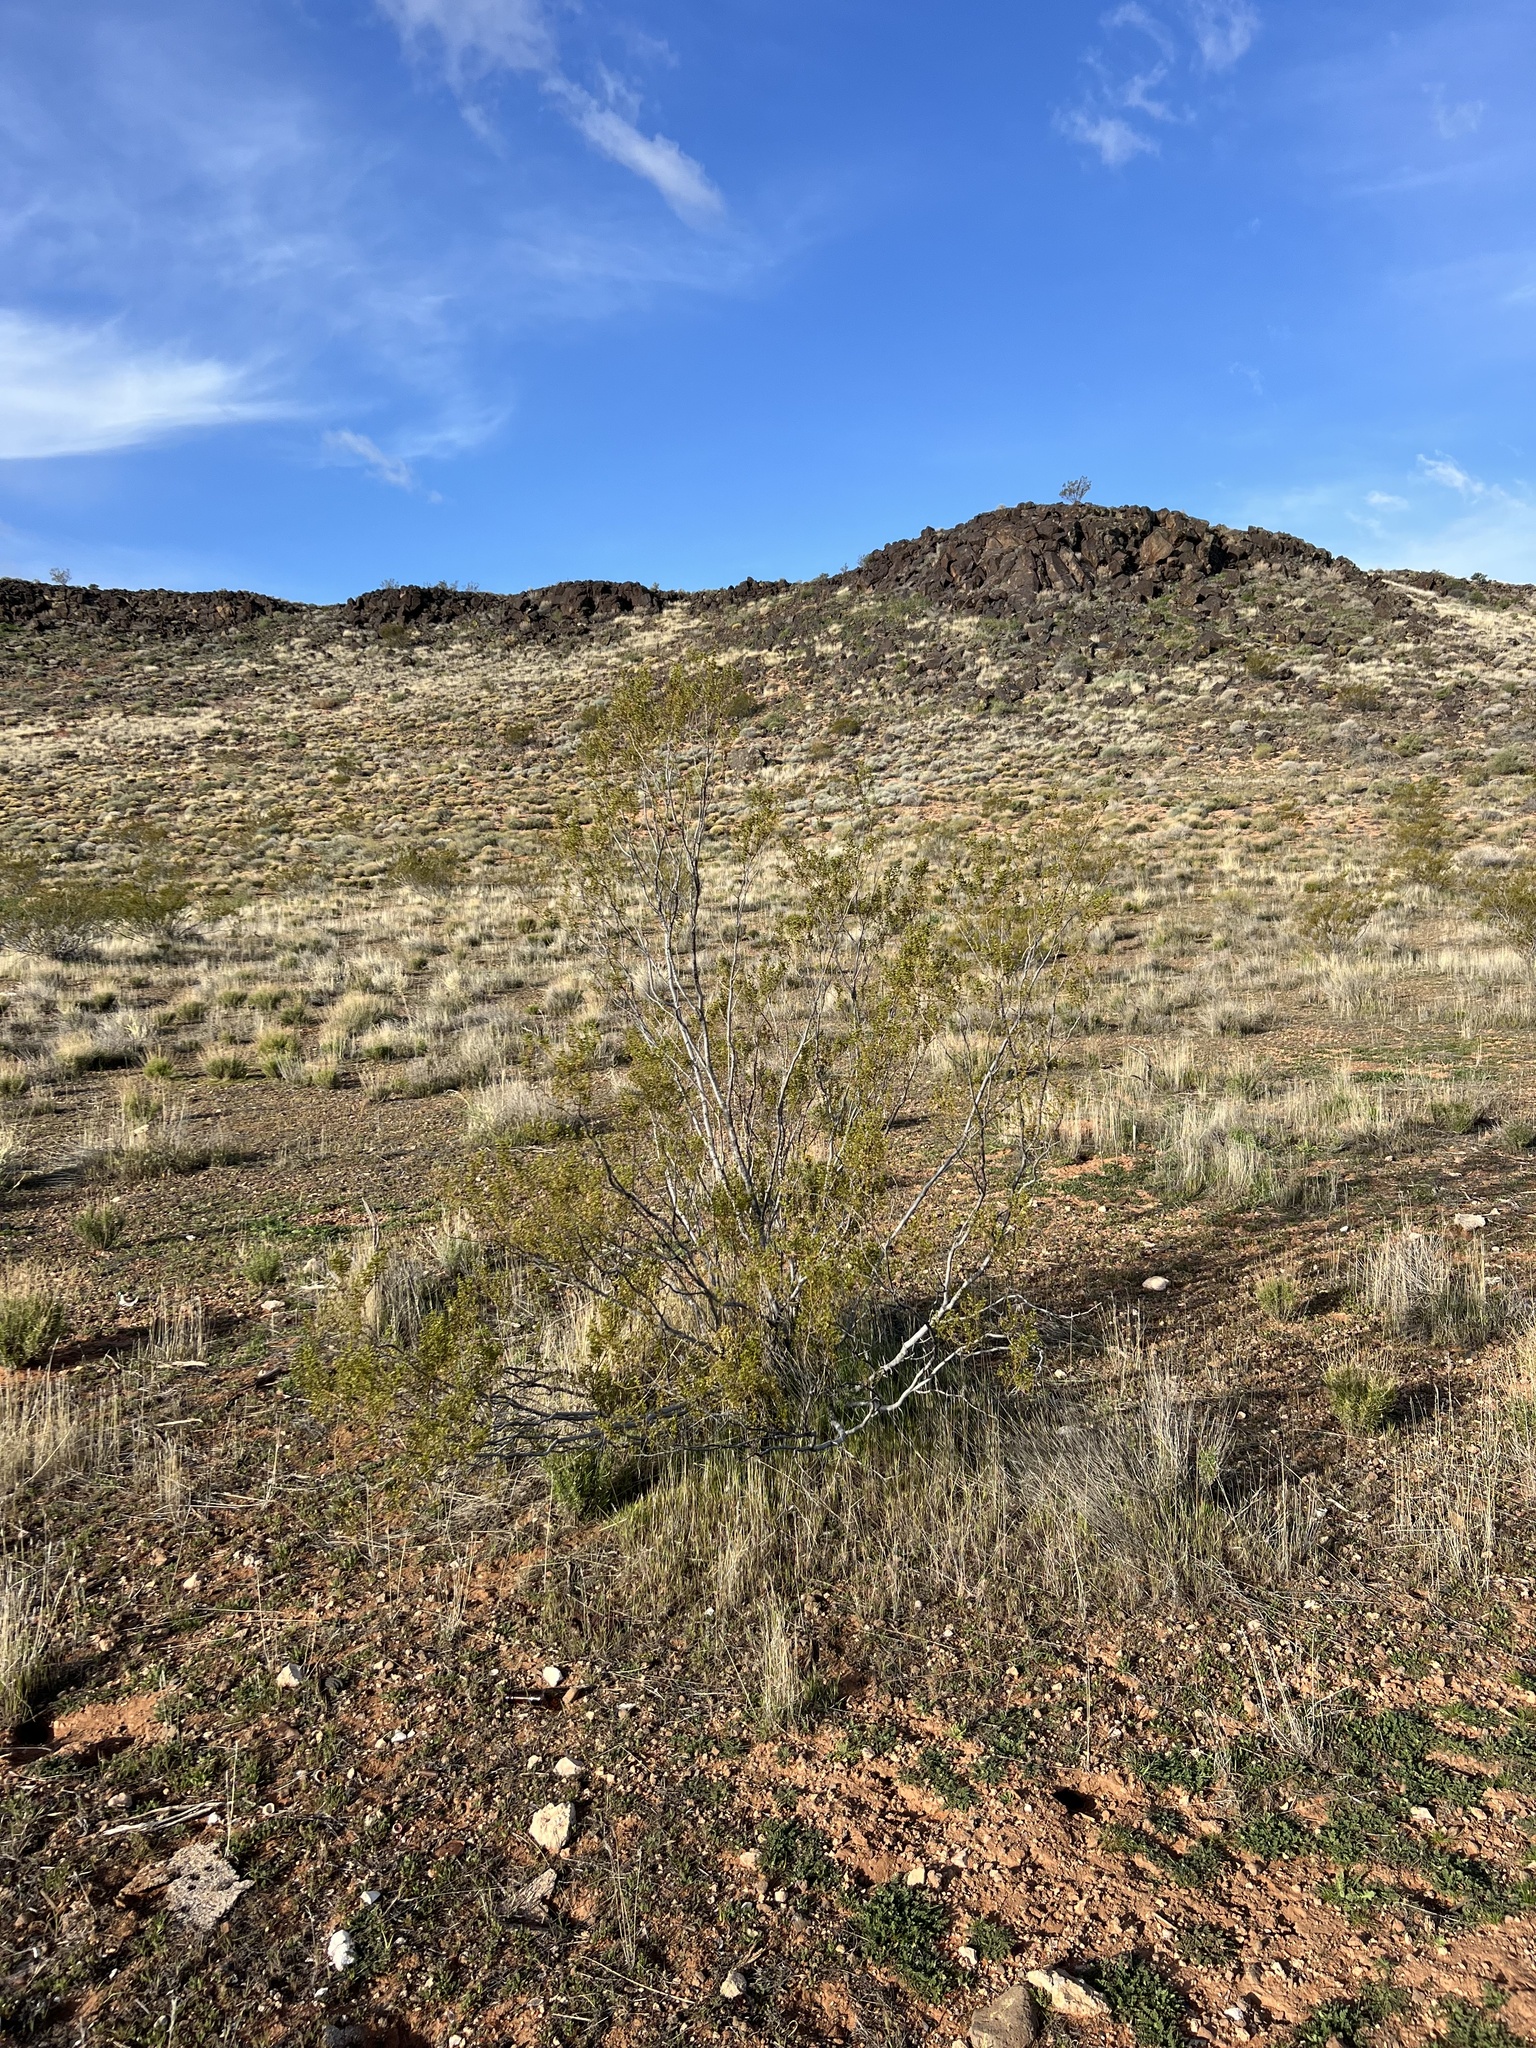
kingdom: Plantae
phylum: Tracheophyta
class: Magnoliopsida
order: Zygophyllales
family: Zygophyllaceae
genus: Larrea
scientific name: Larrea tridentata
